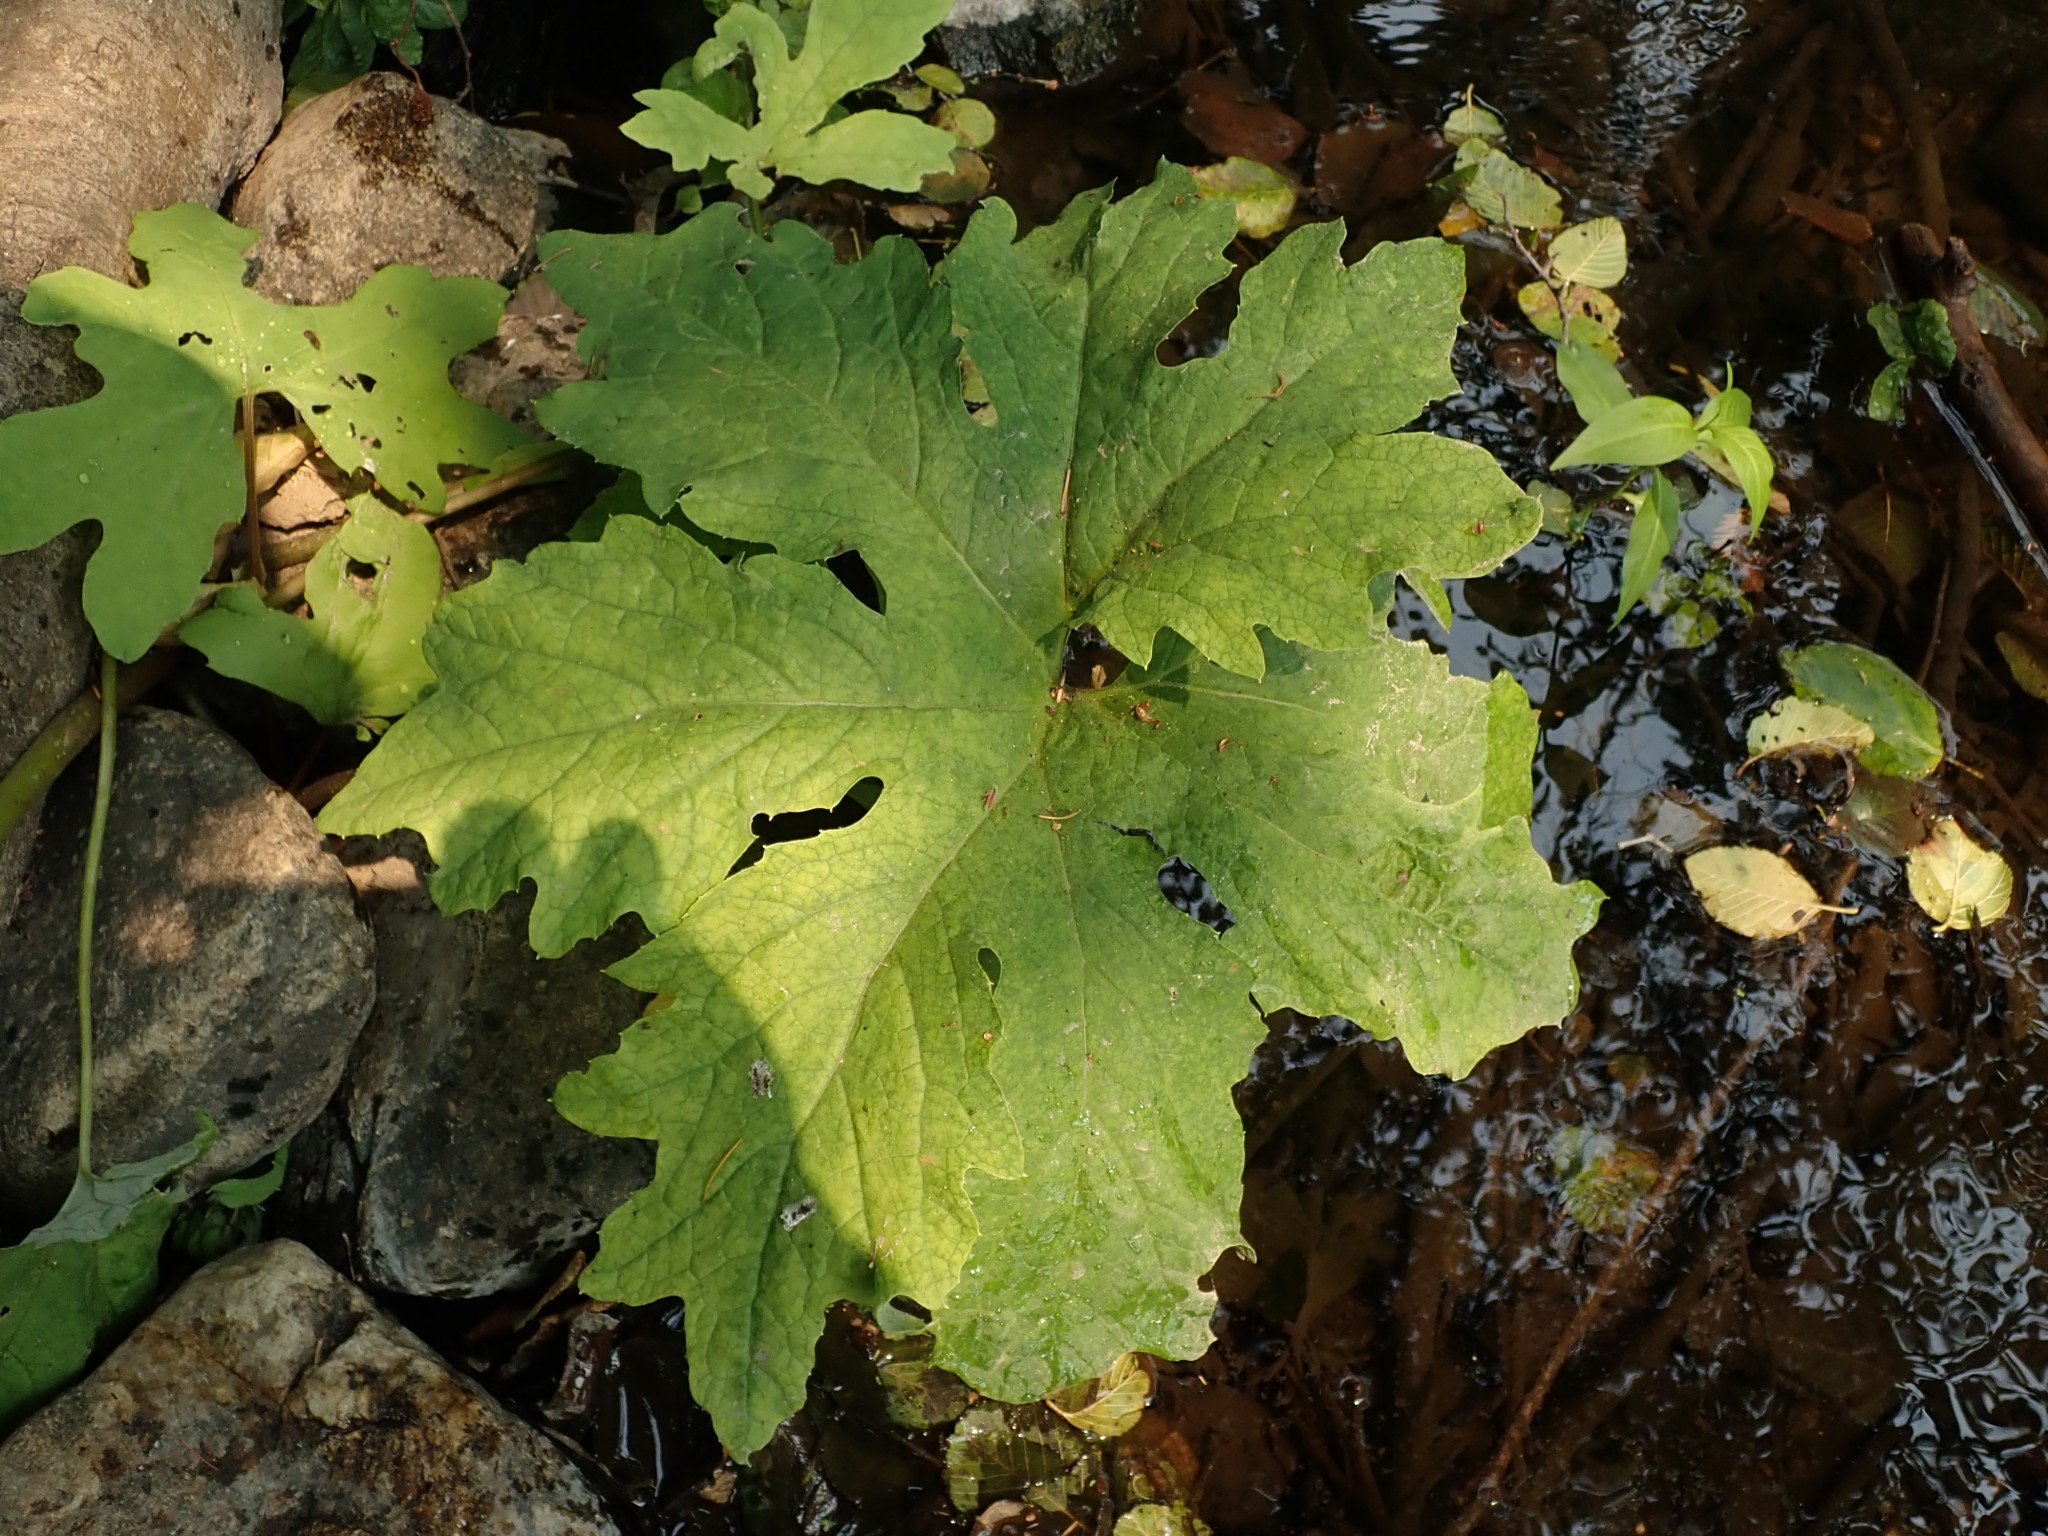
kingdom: Plantae
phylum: Tracheophyta
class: Magnoliopsida
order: Asterales
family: Asteraceae
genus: Petasites
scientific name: Petasites frigidus
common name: Arctic butterbur
